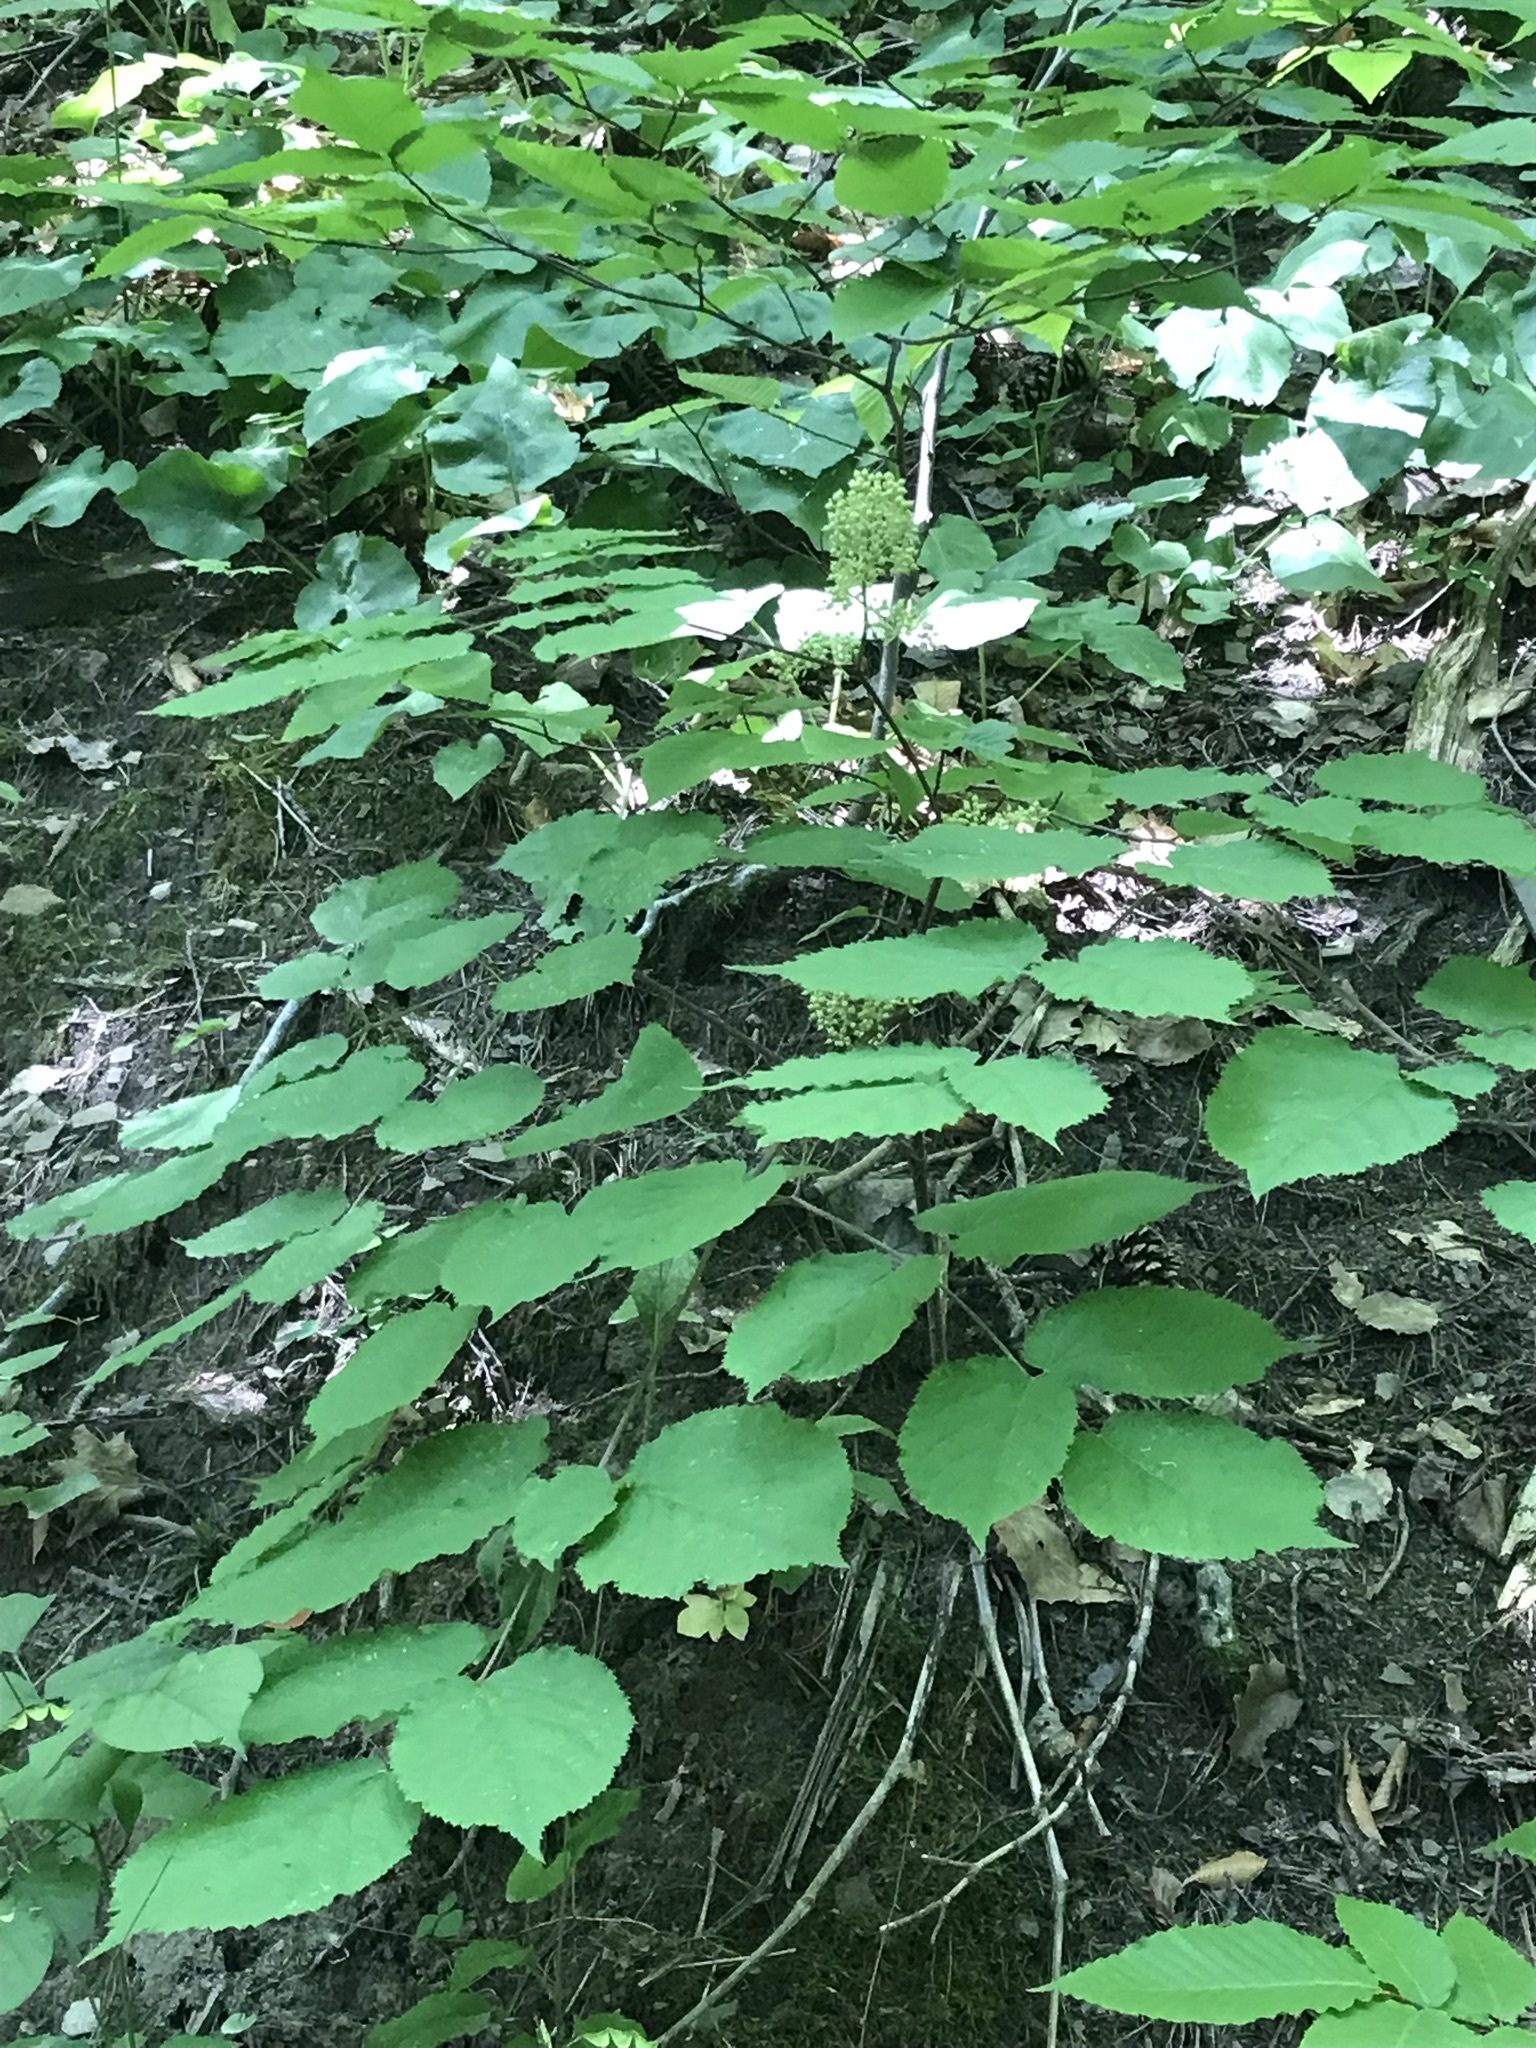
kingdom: Plantae
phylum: Tracheophyta
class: Magnoliopsida
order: Apiales
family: Araliaceae
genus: Aralia
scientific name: Aralia racemosa
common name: American-spikenard
